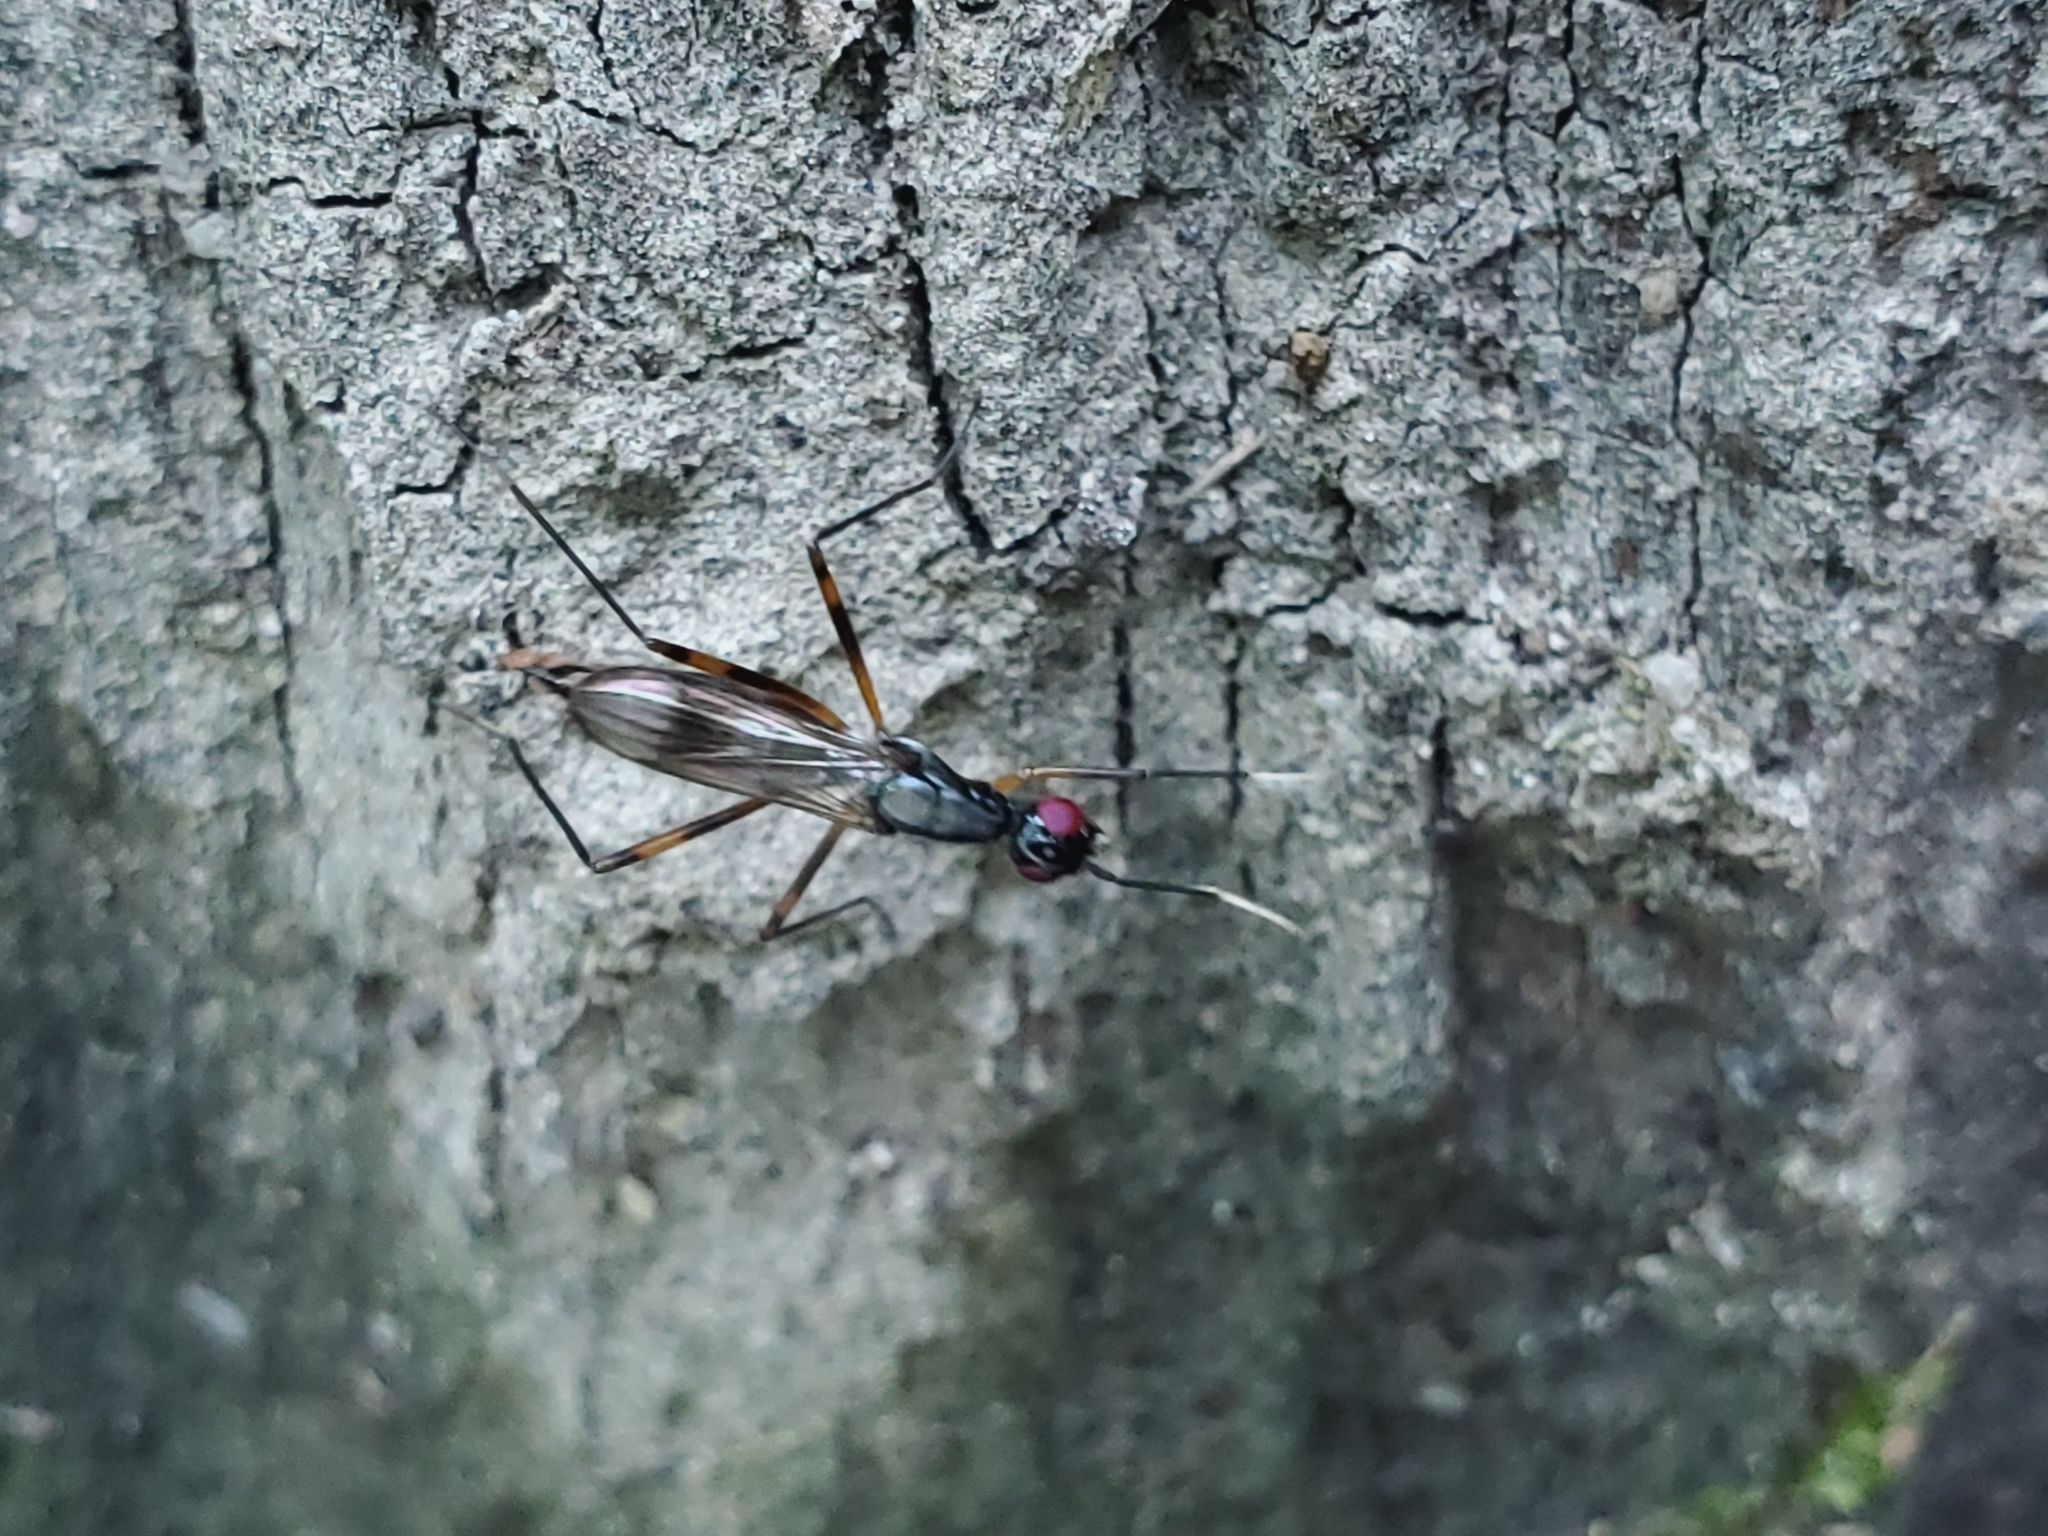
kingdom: Animalia
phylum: Arthropoda
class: Insecta
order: Diptera
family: Micropezidae
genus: Rainieria
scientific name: Rainieria antennaepes
